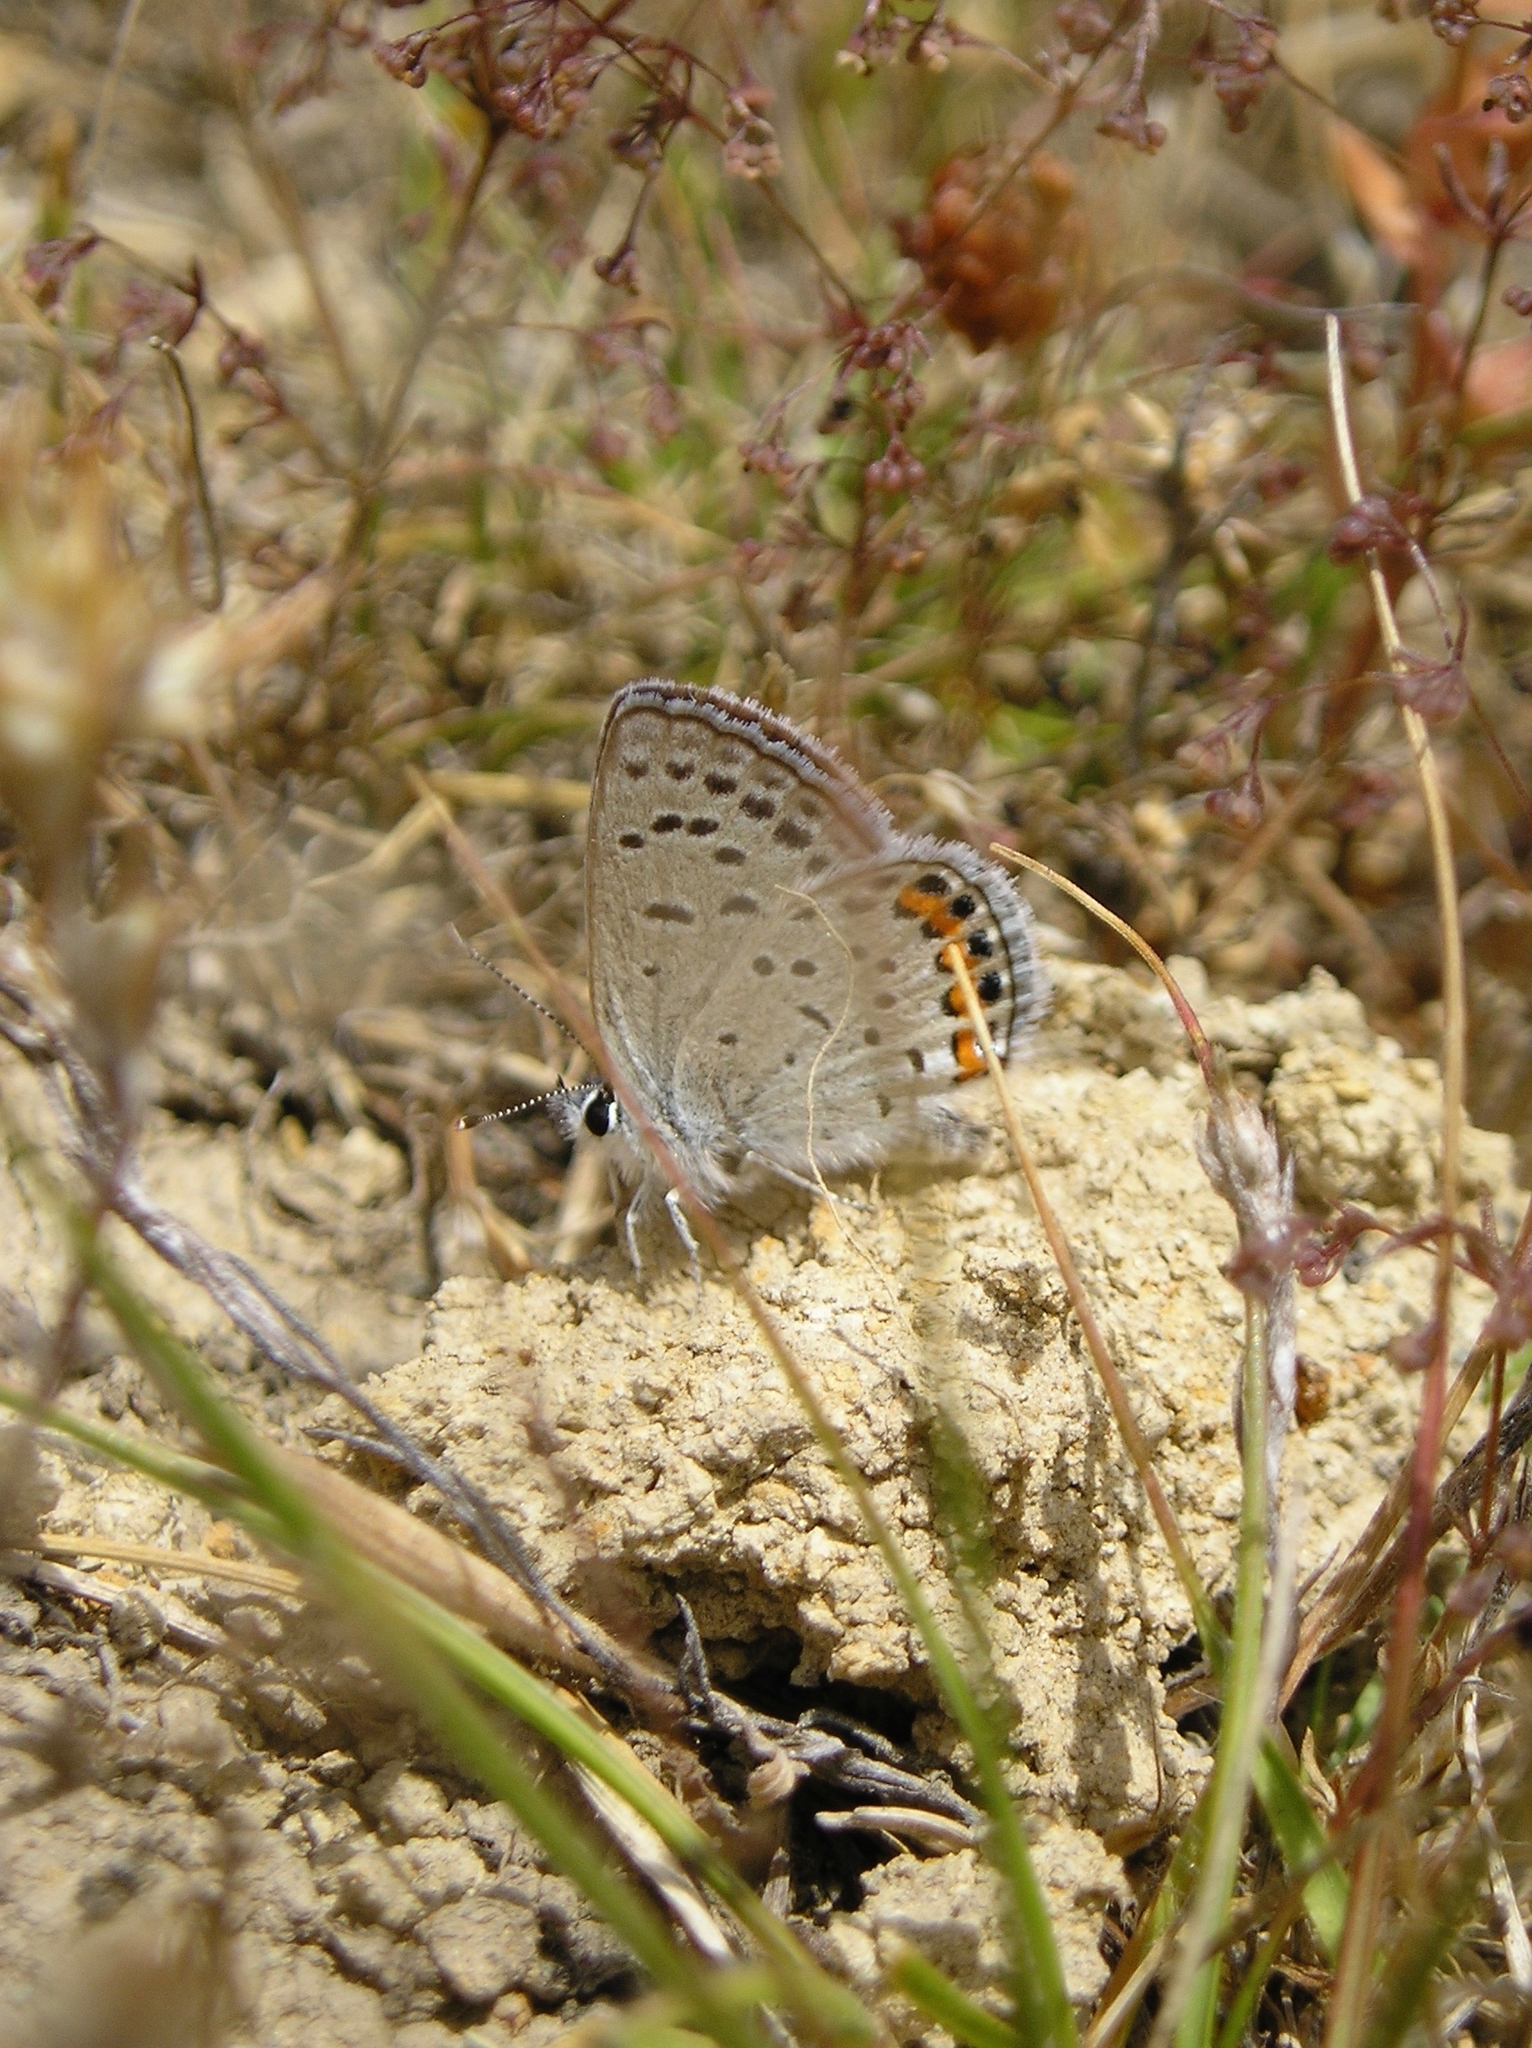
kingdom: Animalia
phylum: Arthropoda
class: Insecta
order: Lepidoptera
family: Lycaenidae
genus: Icaricia
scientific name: Icaricia acmon
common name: Acmon blue
